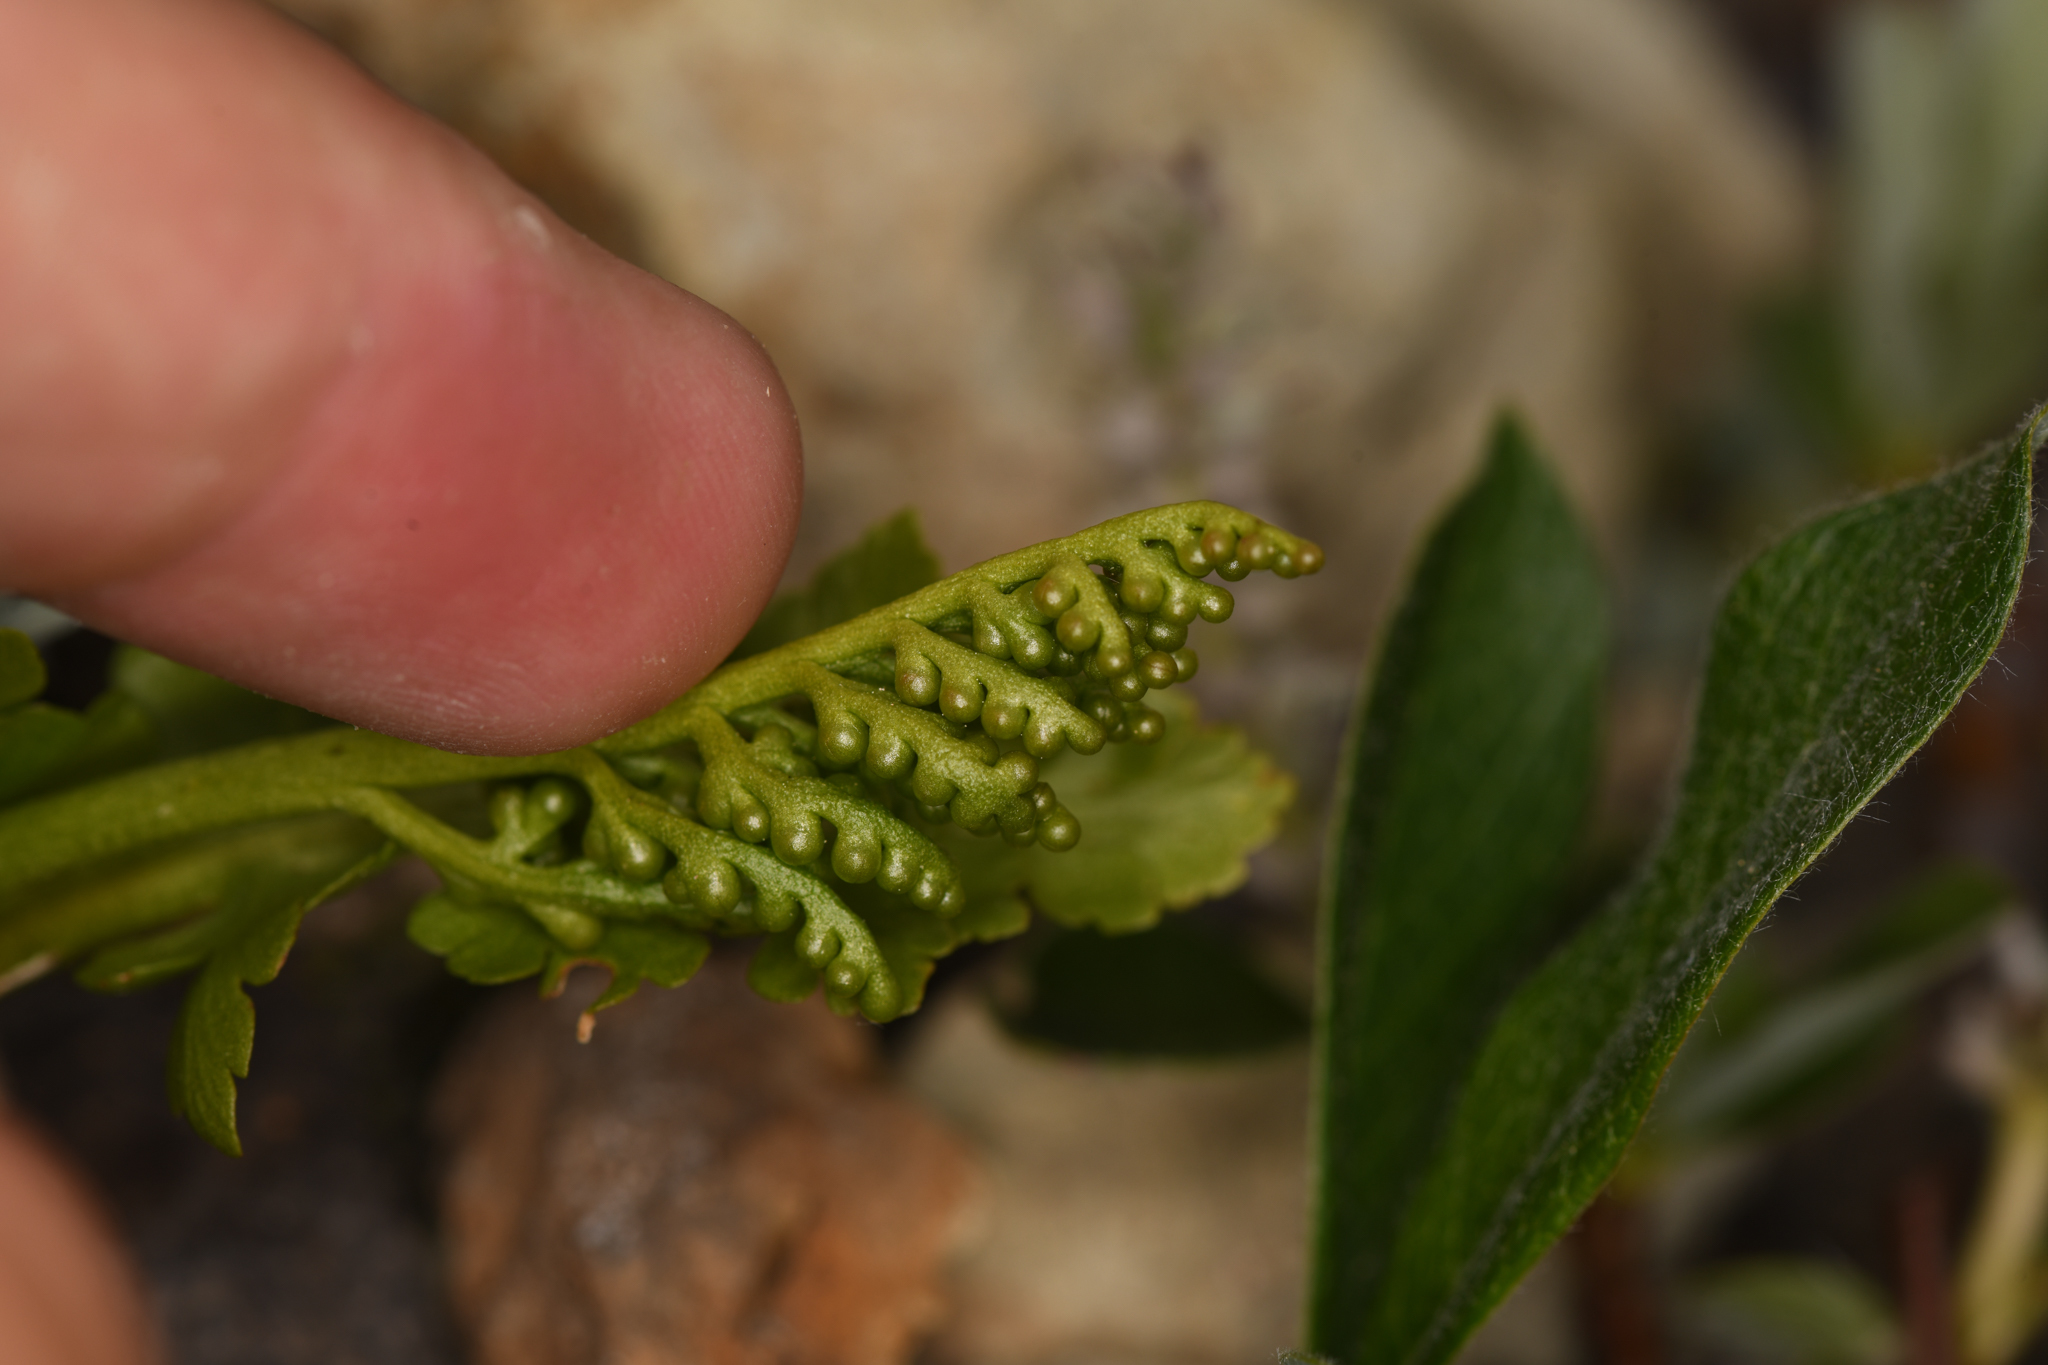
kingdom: Plantae
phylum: Tracheophyta
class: Polypodiopsida
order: Ophioglossales
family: Ophioglossaceae
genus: Botrychium
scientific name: Botrychium pinnatum
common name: Northwestern moonwort
